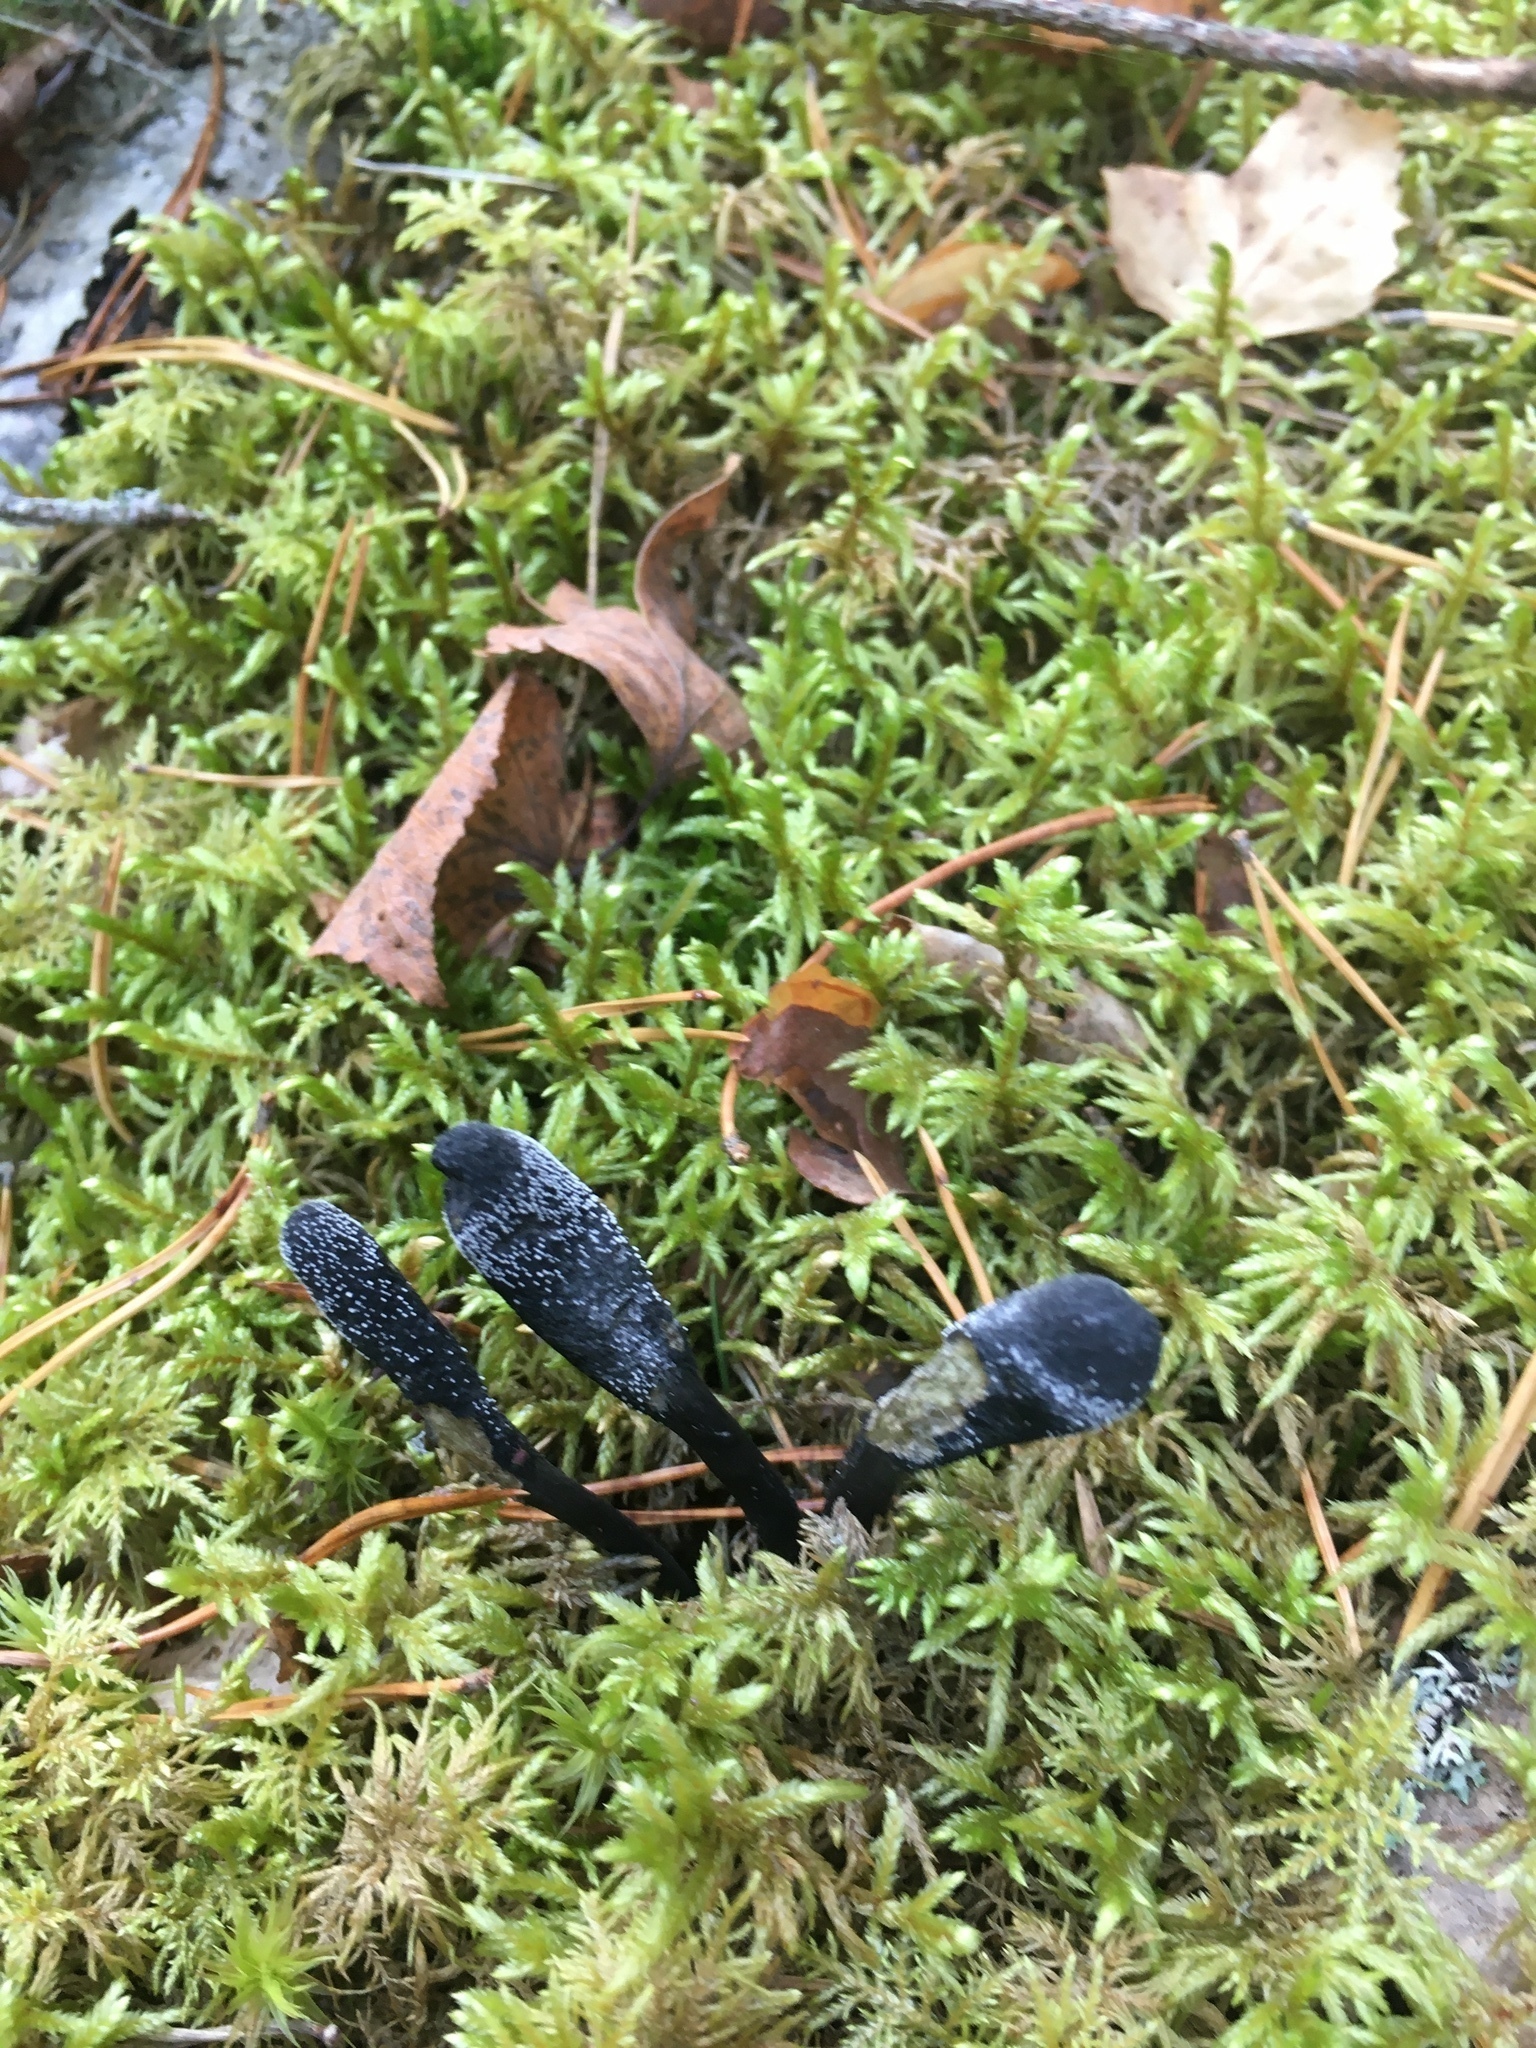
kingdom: Fungi
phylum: Ascomycota
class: Sordariomycetes
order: Hypocreales
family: Ophiocordycipitaceae
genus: Tolypocladium
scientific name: Tolypocladium ophioglossoides
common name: Snaketongue truffleclub
